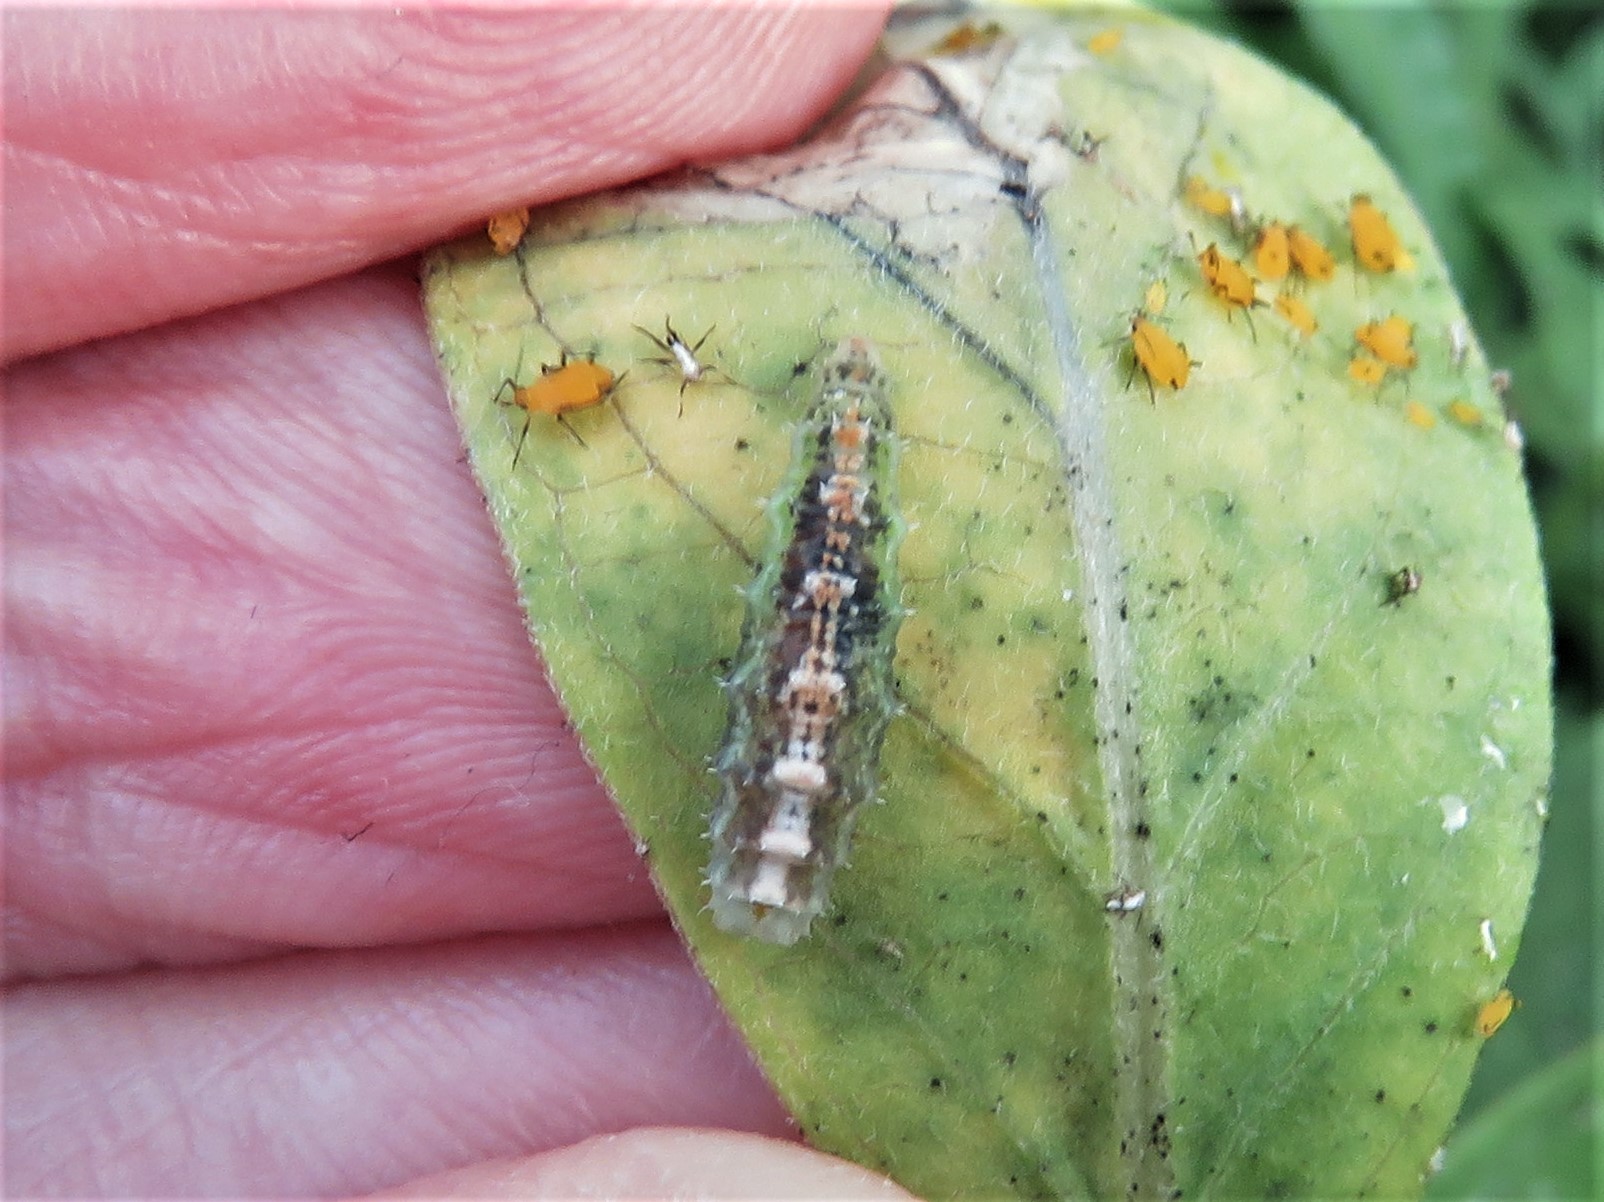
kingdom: Animalia
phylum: Arthropoda
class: Insecta
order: Diptera
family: Syrphidae
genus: Dioprosopa
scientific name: Dioprosopa clavatus
